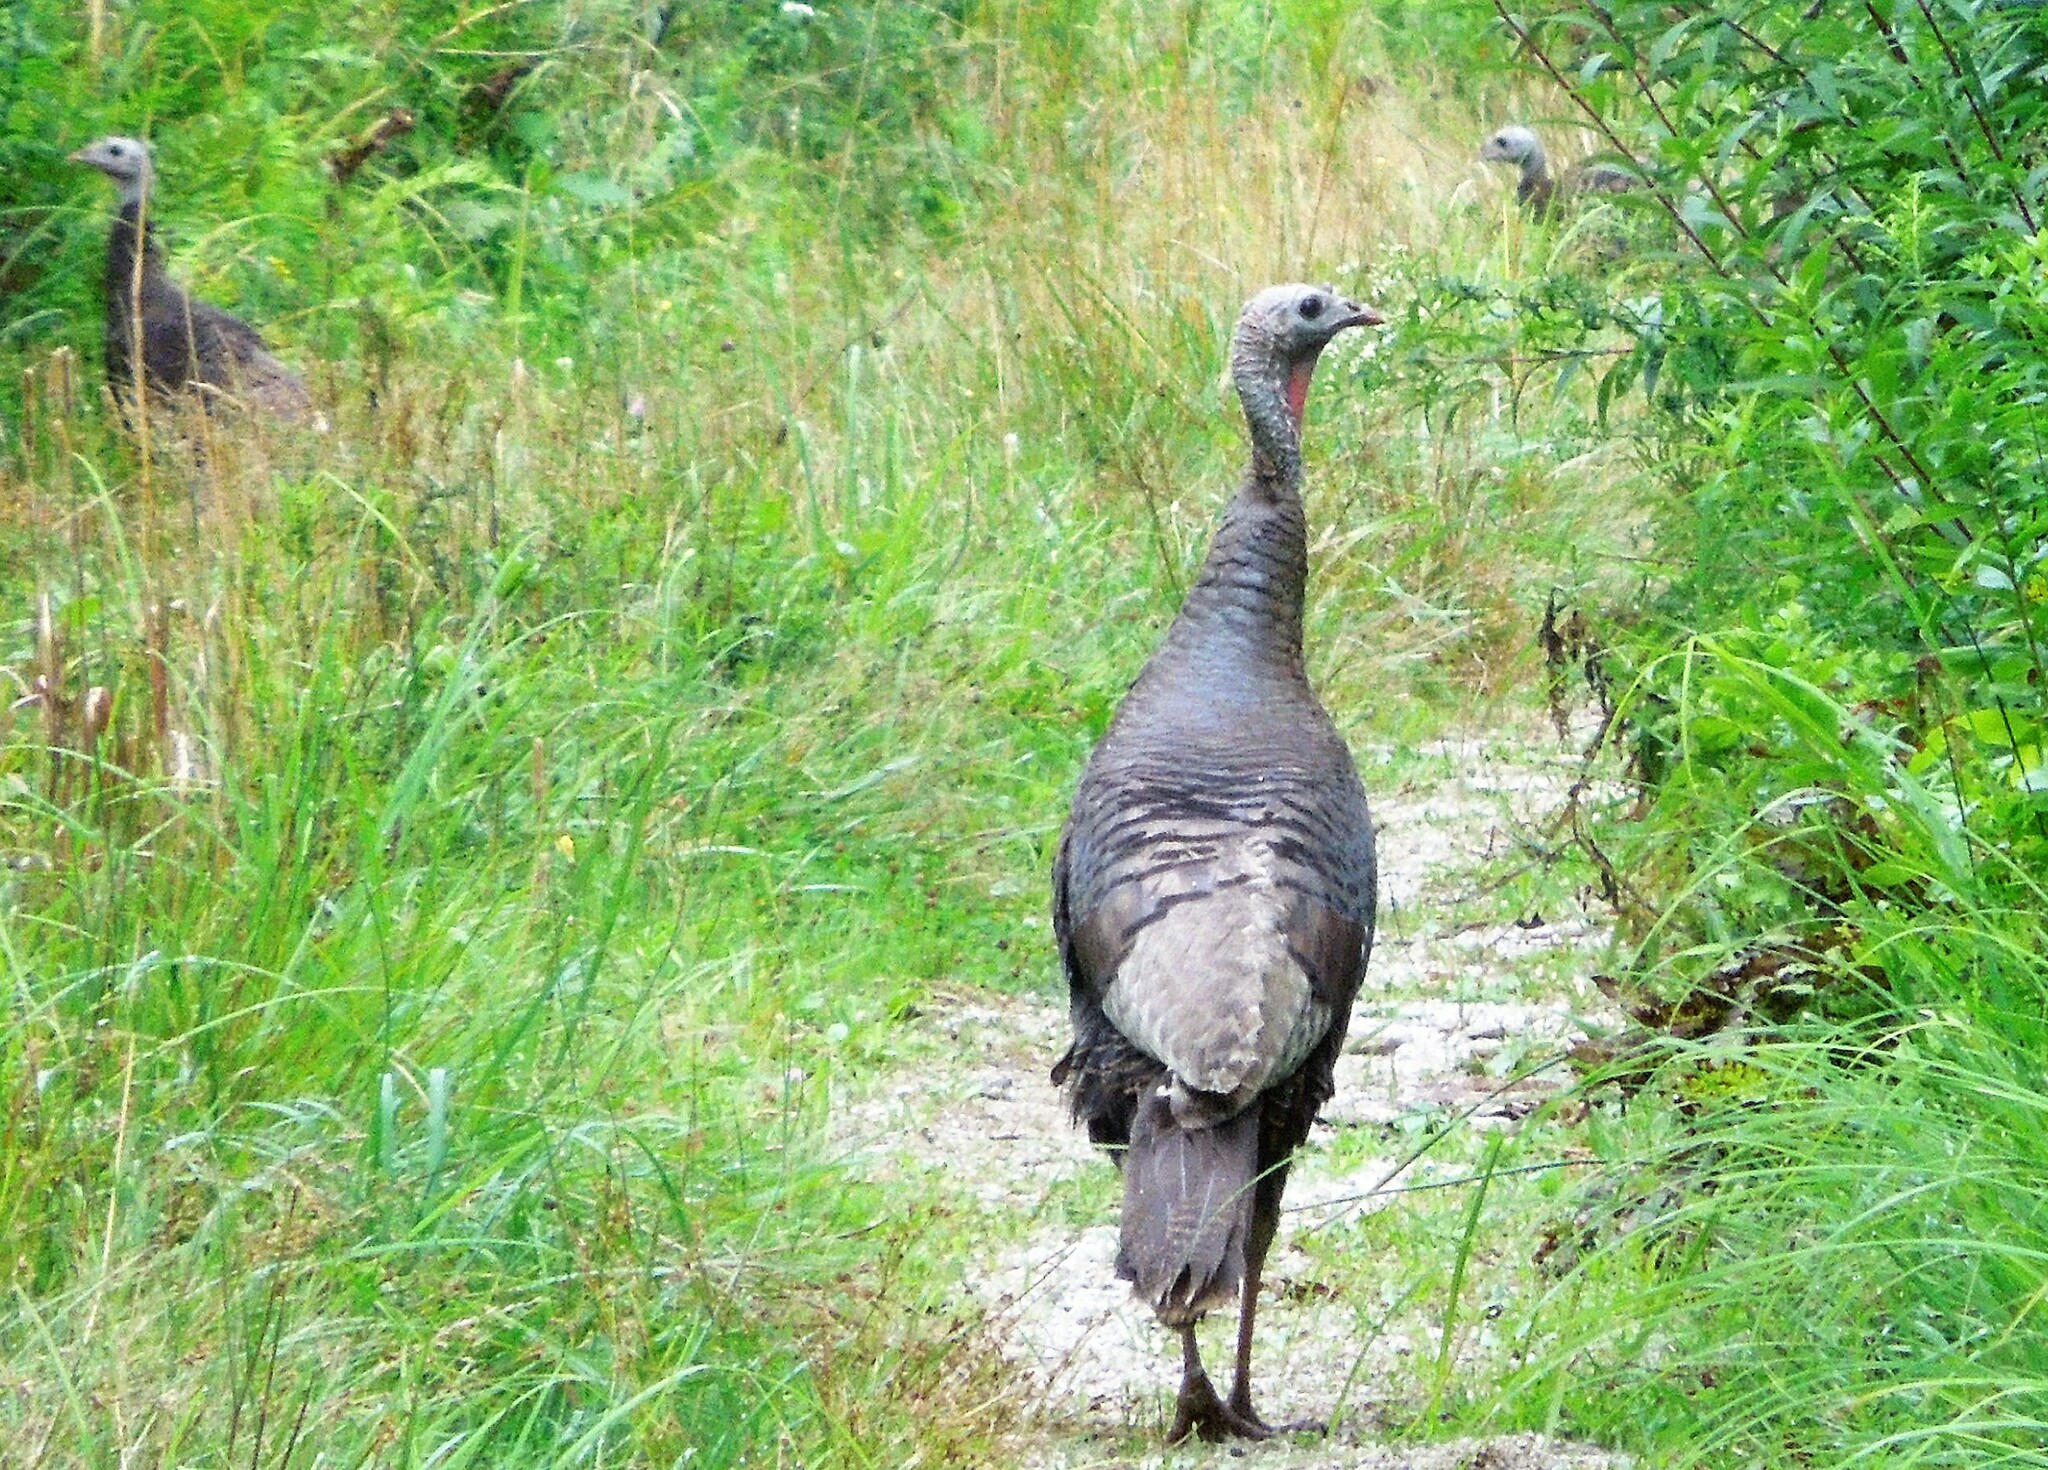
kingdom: Animalia
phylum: Chordata
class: Aves
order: Galliformes
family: Phasianidae
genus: Meleagris
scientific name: Meleagris gallopavo
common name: Wild turkey
